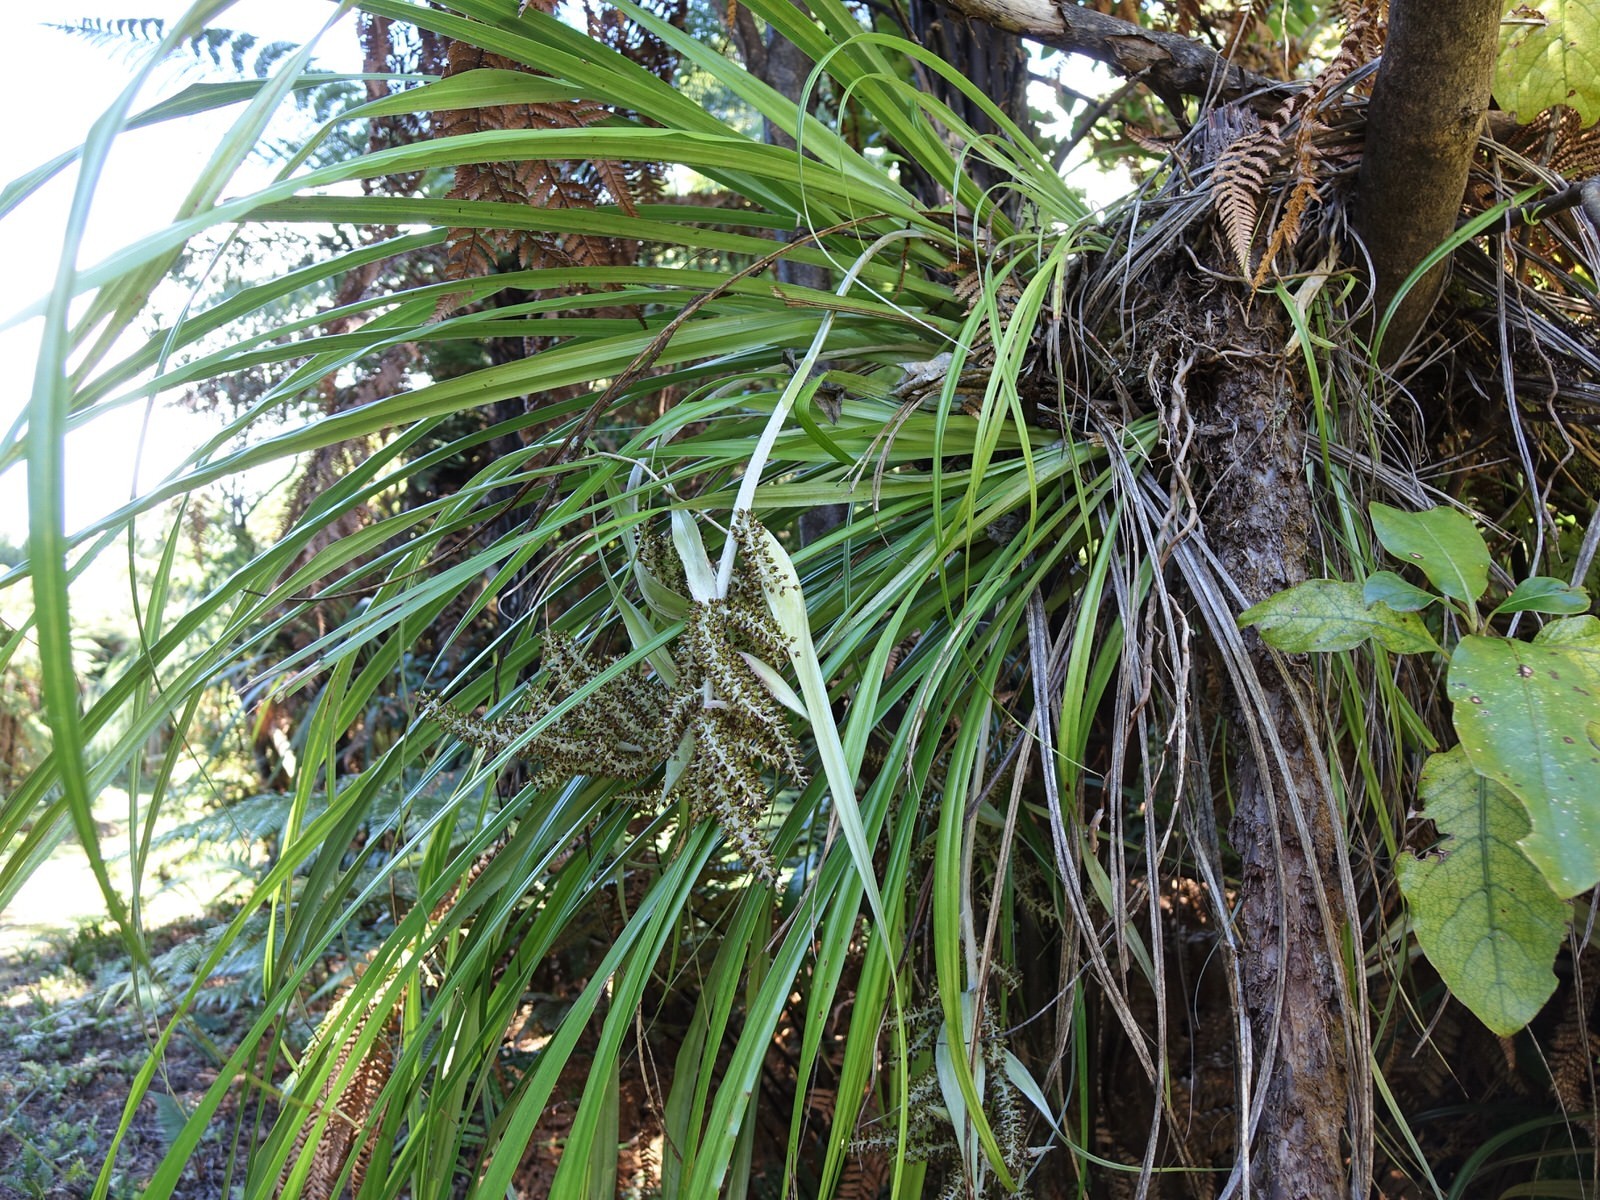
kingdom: Plantae
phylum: Tracheophyta
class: Liliopsida
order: Asparagales
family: Asteliaceae
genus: Astelia
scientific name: Astelia solandri
